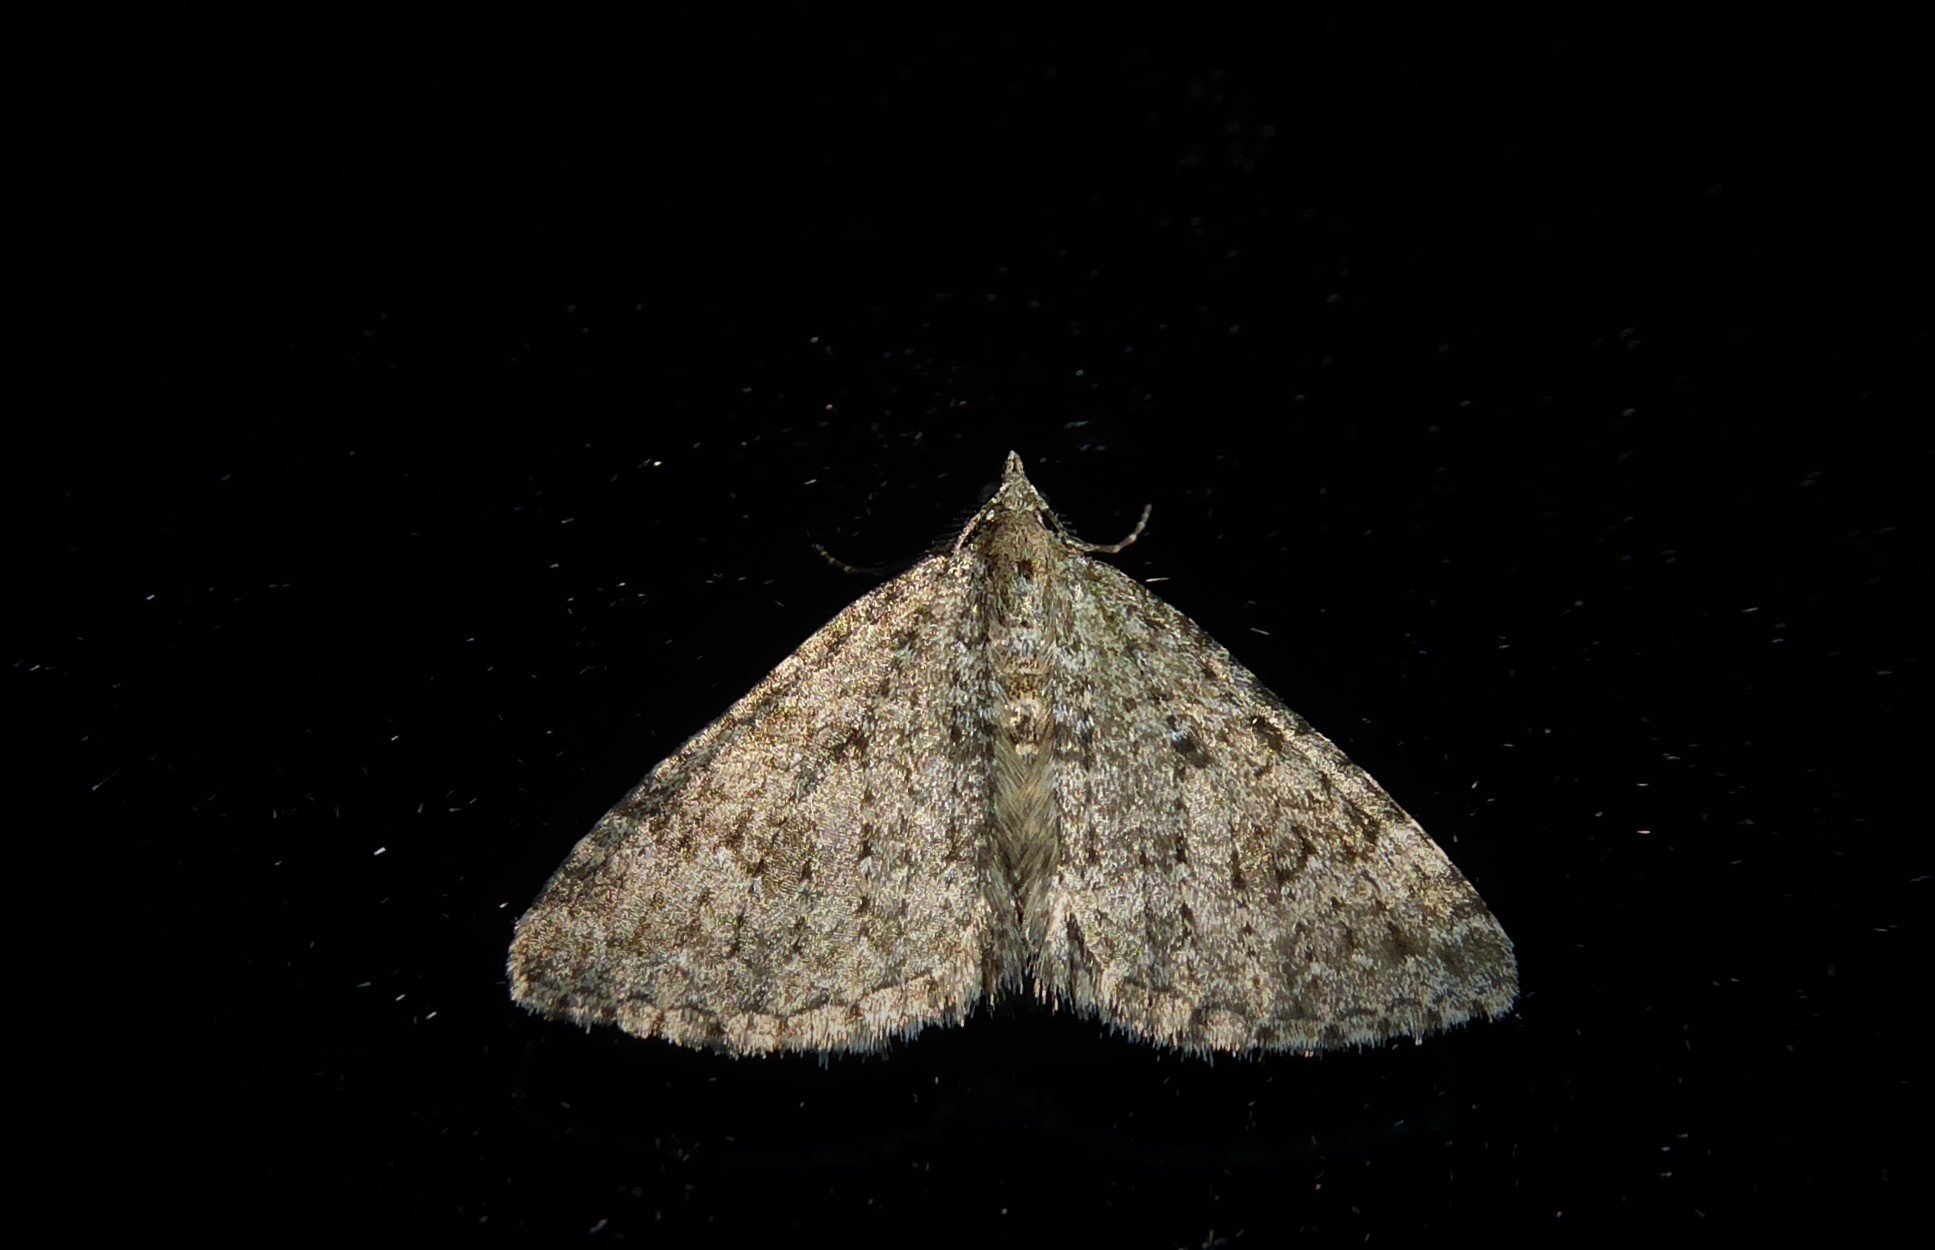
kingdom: Animalia
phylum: Arthropoda
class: Insecta
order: Lepidoptera
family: Geometridae
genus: Helastia
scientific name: Helastia corcularia
